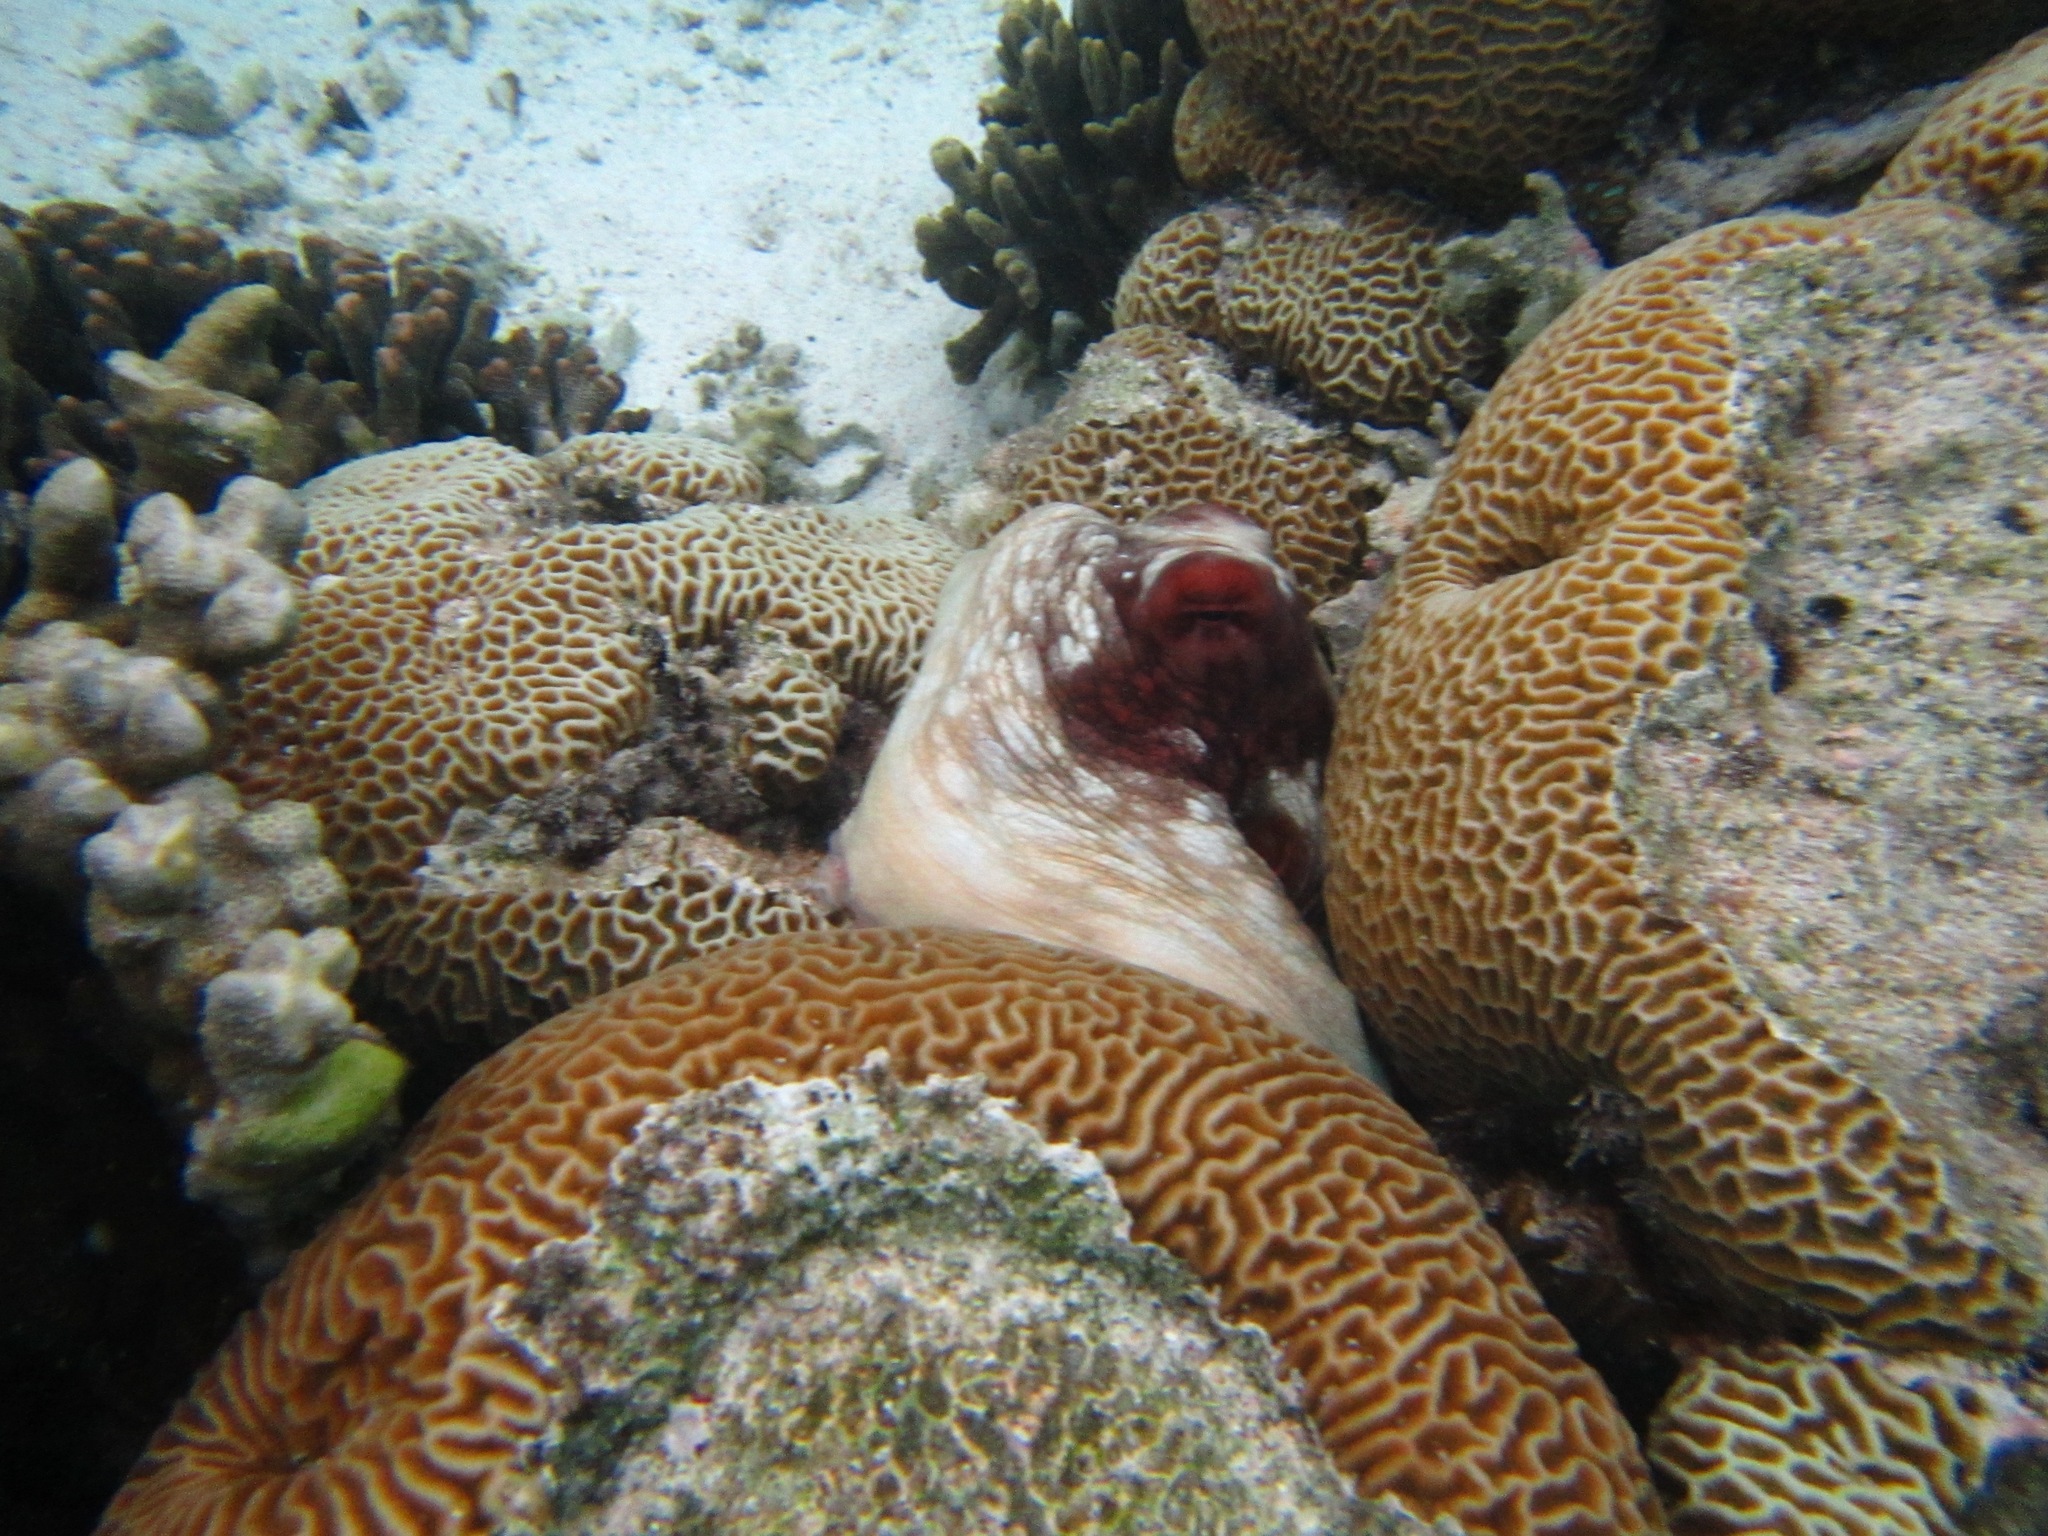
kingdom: Animalia
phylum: Mollusca
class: Cephalopoda
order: Octopoda
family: Octopodidae
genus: Octopus
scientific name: Octopus cyanea
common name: Cyane's octopus
